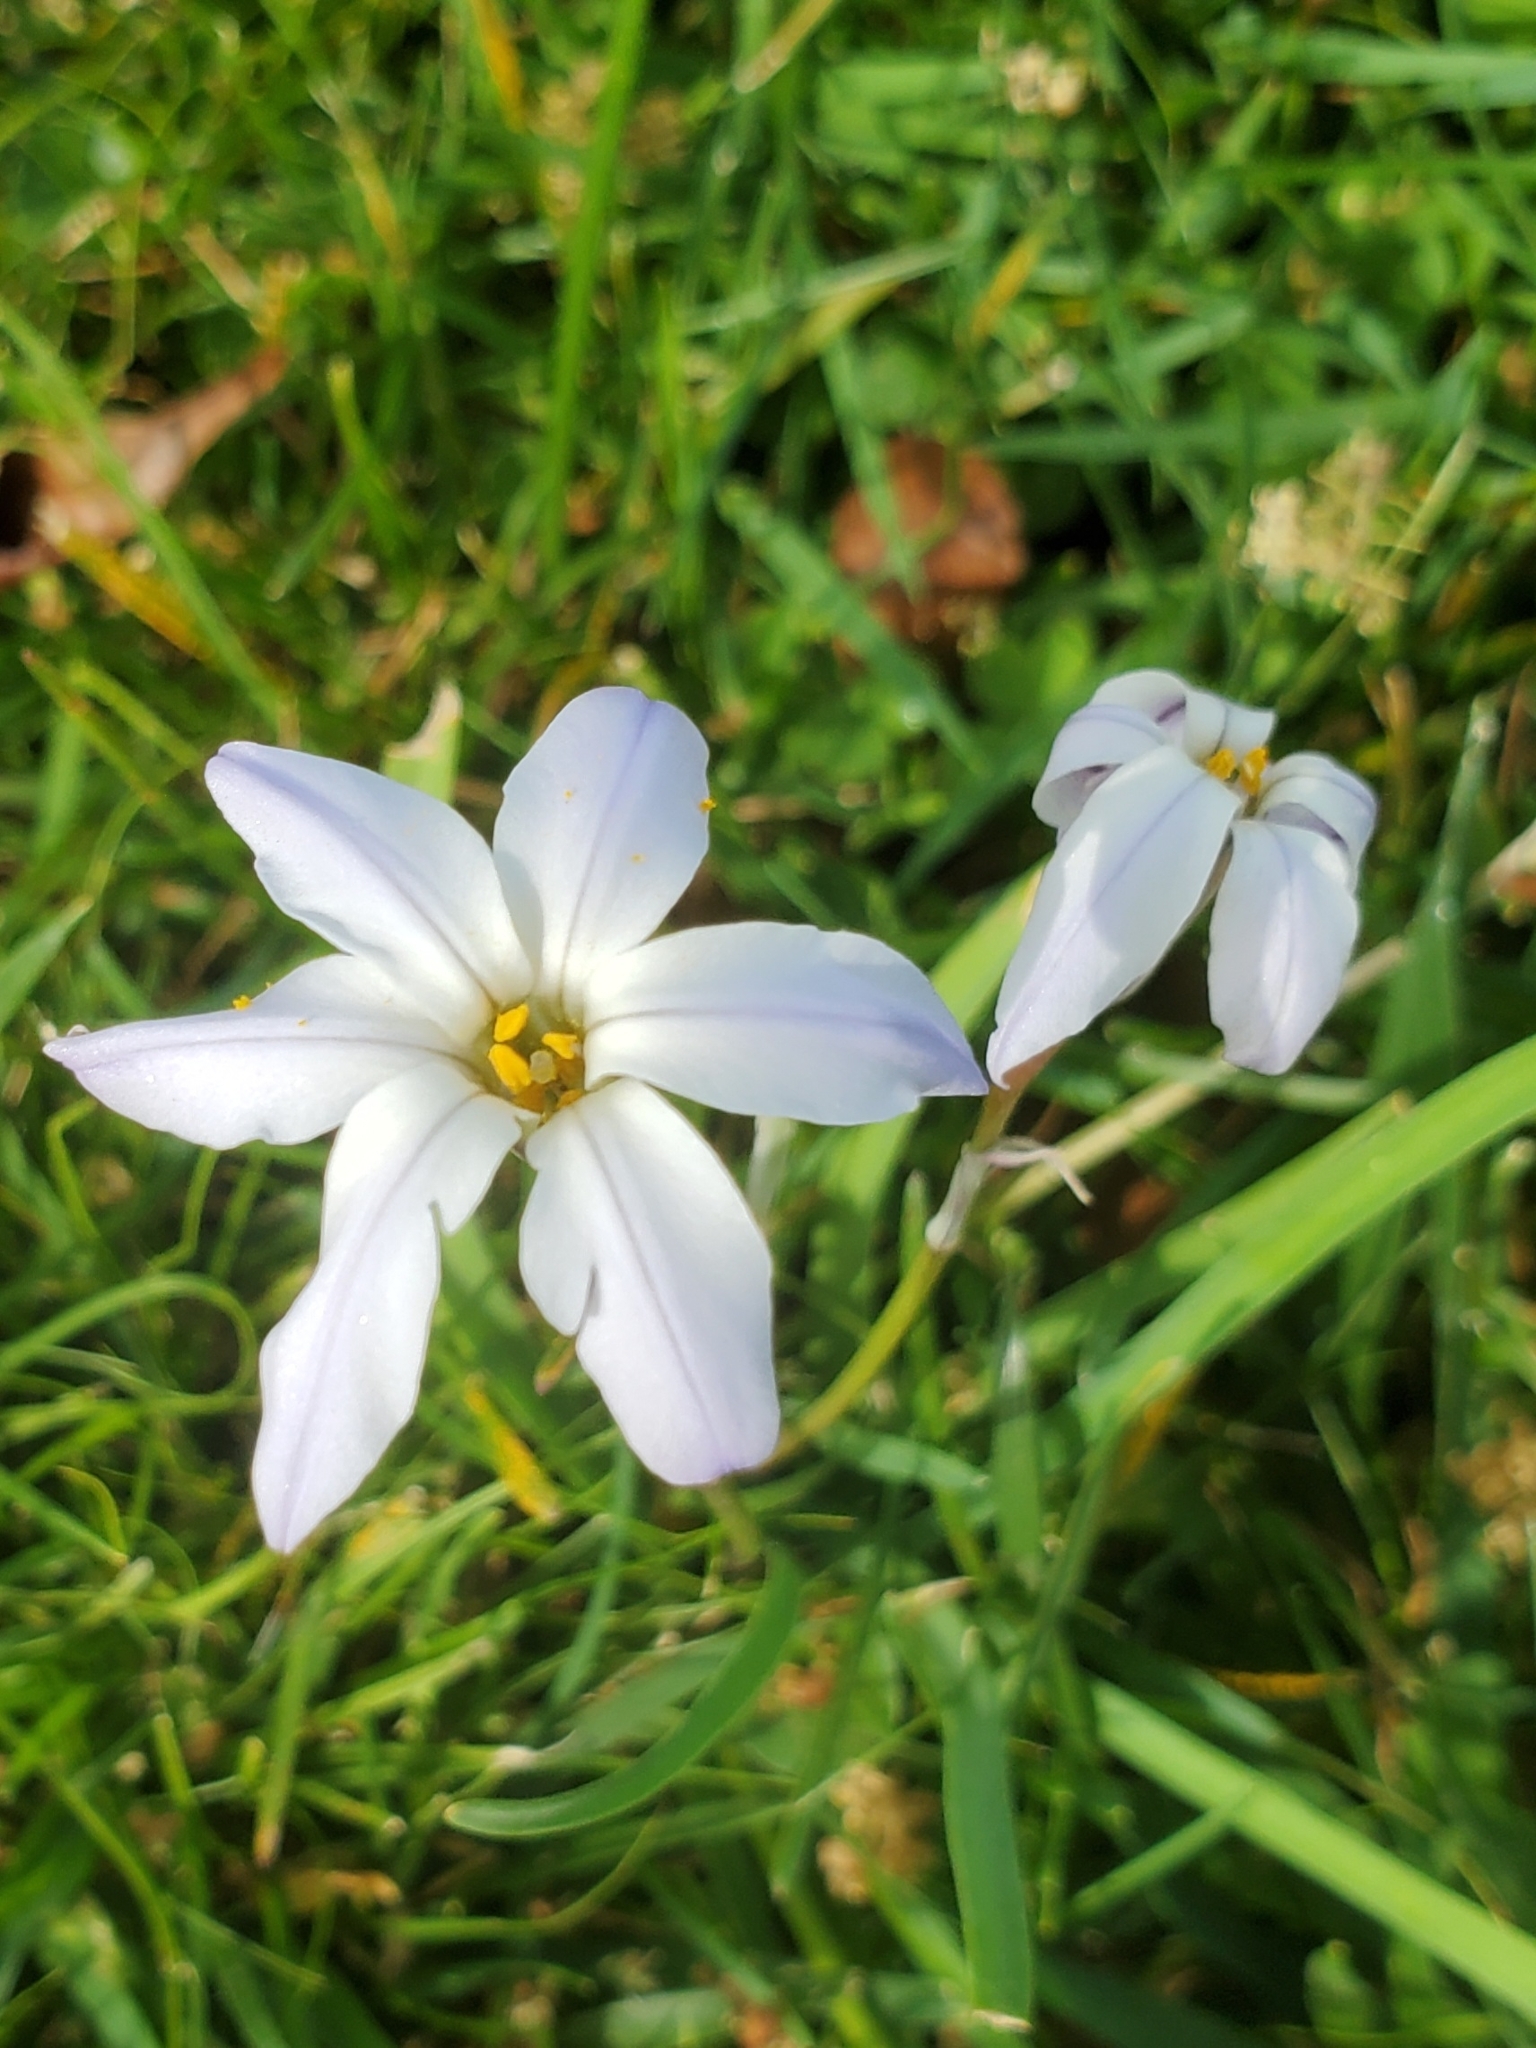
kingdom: Plantae
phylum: Tracheophyta
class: Liliopsida
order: Asparagales
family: Amaryllidaceae
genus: Ipheion
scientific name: Ipheion uniflorum
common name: Spring starflower
